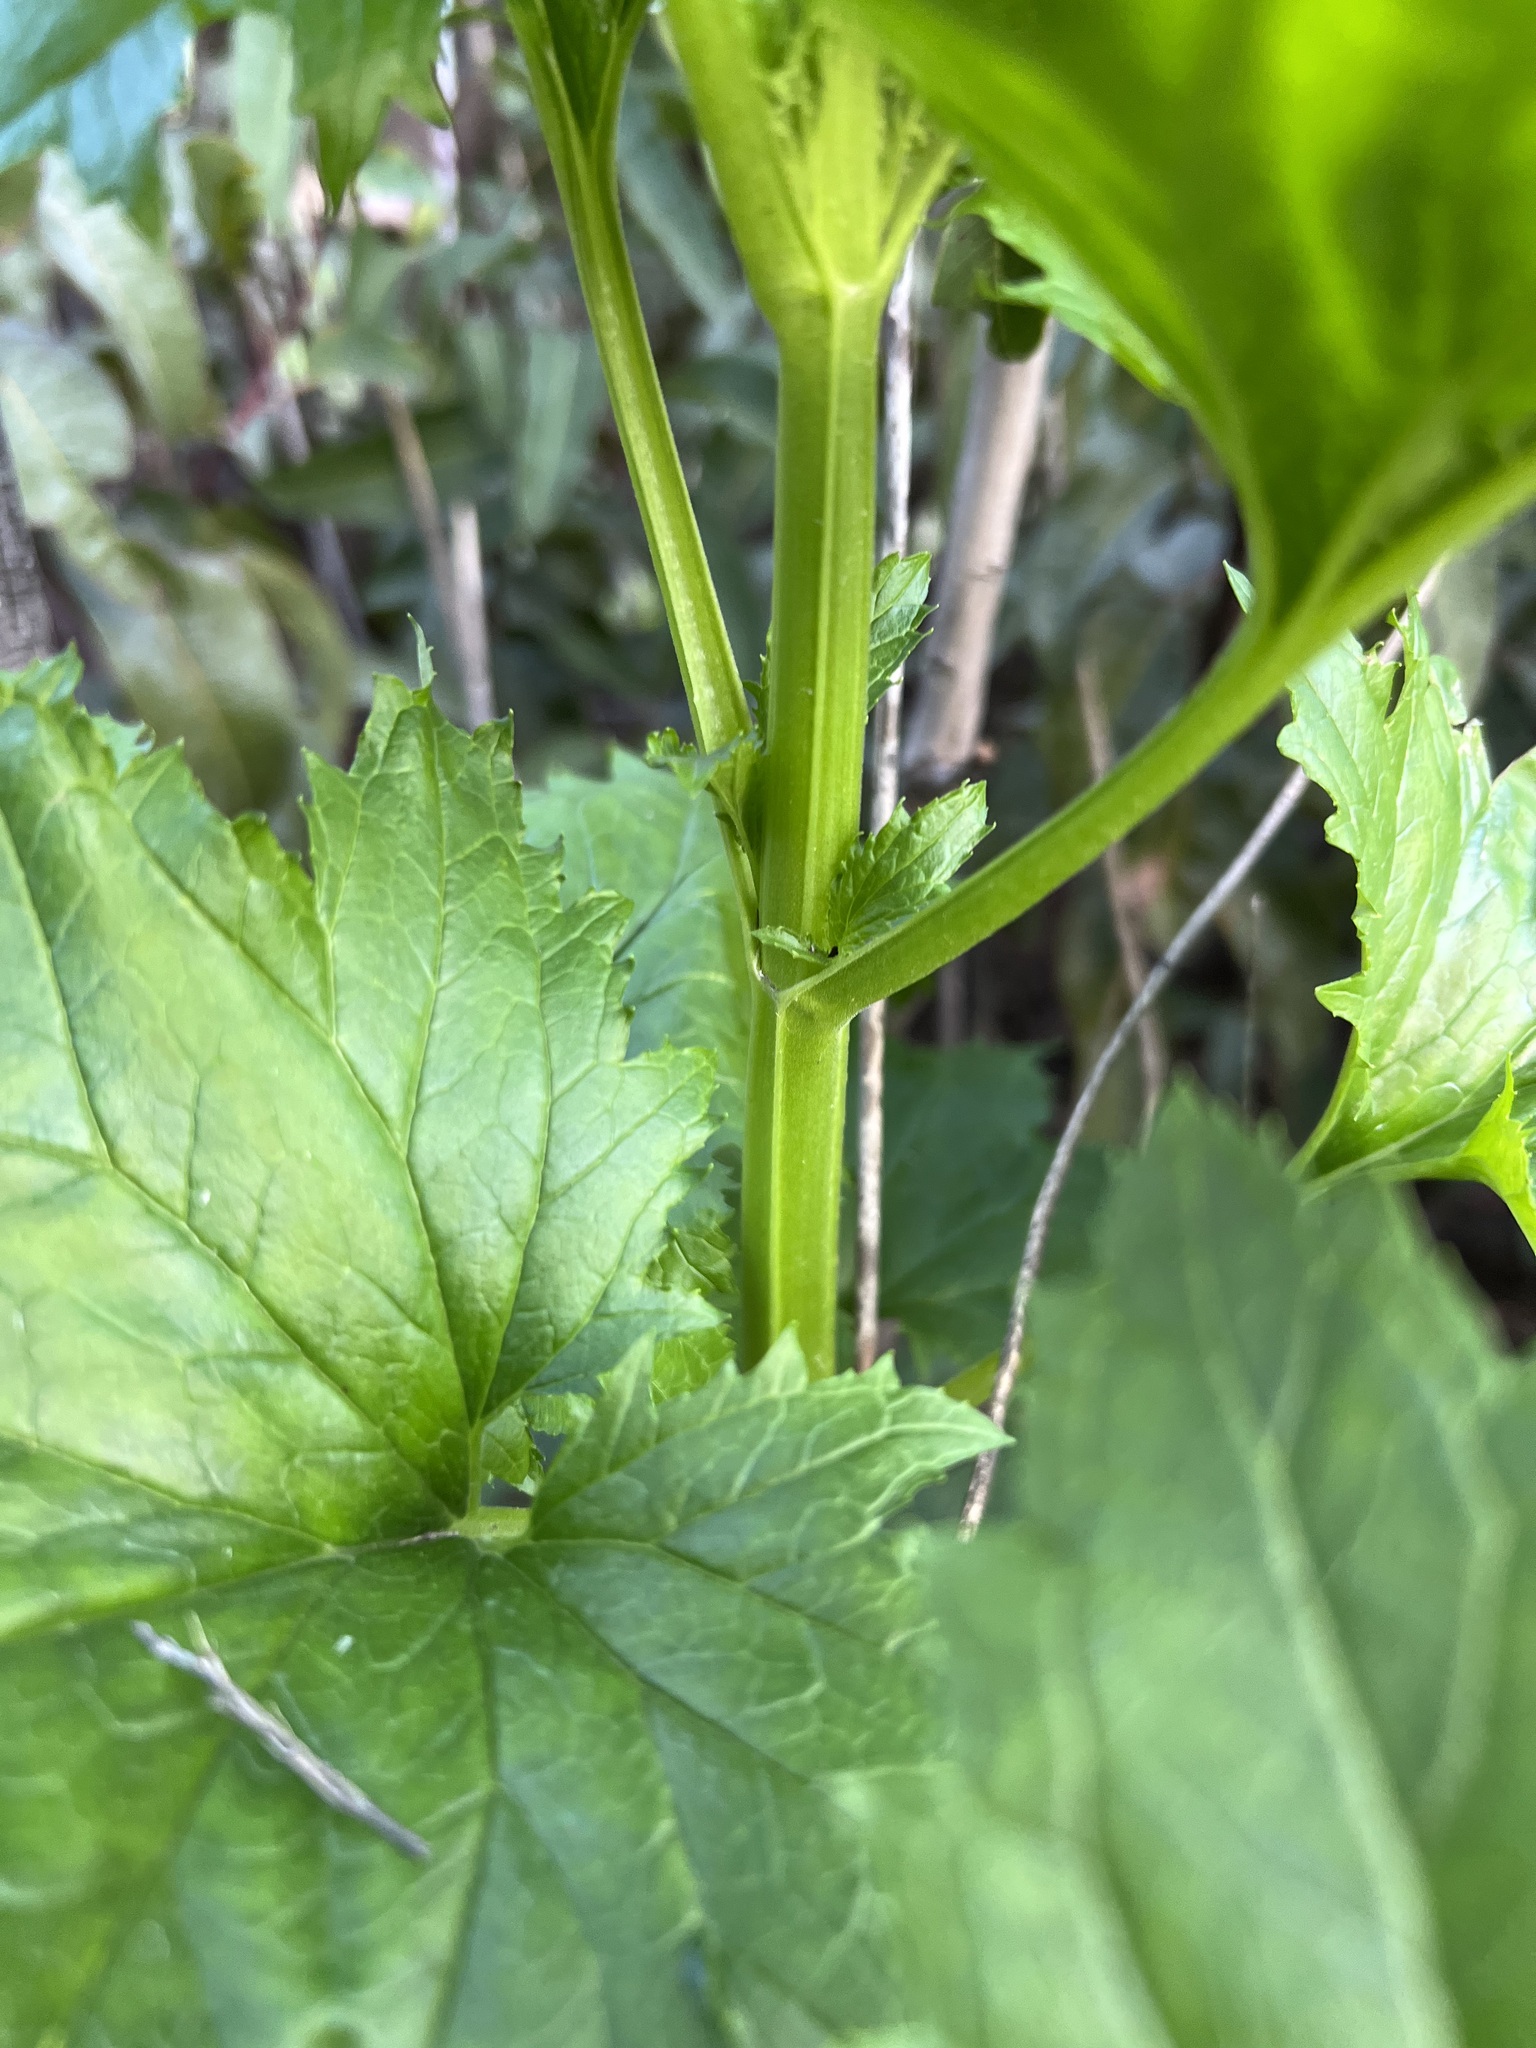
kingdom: Plantae
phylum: Tracheophyta
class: Magnoliopsida
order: Lamiales
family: Scrophulariaceae
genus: Scrophularia
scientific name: Scrophularia californica
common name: California figwort
